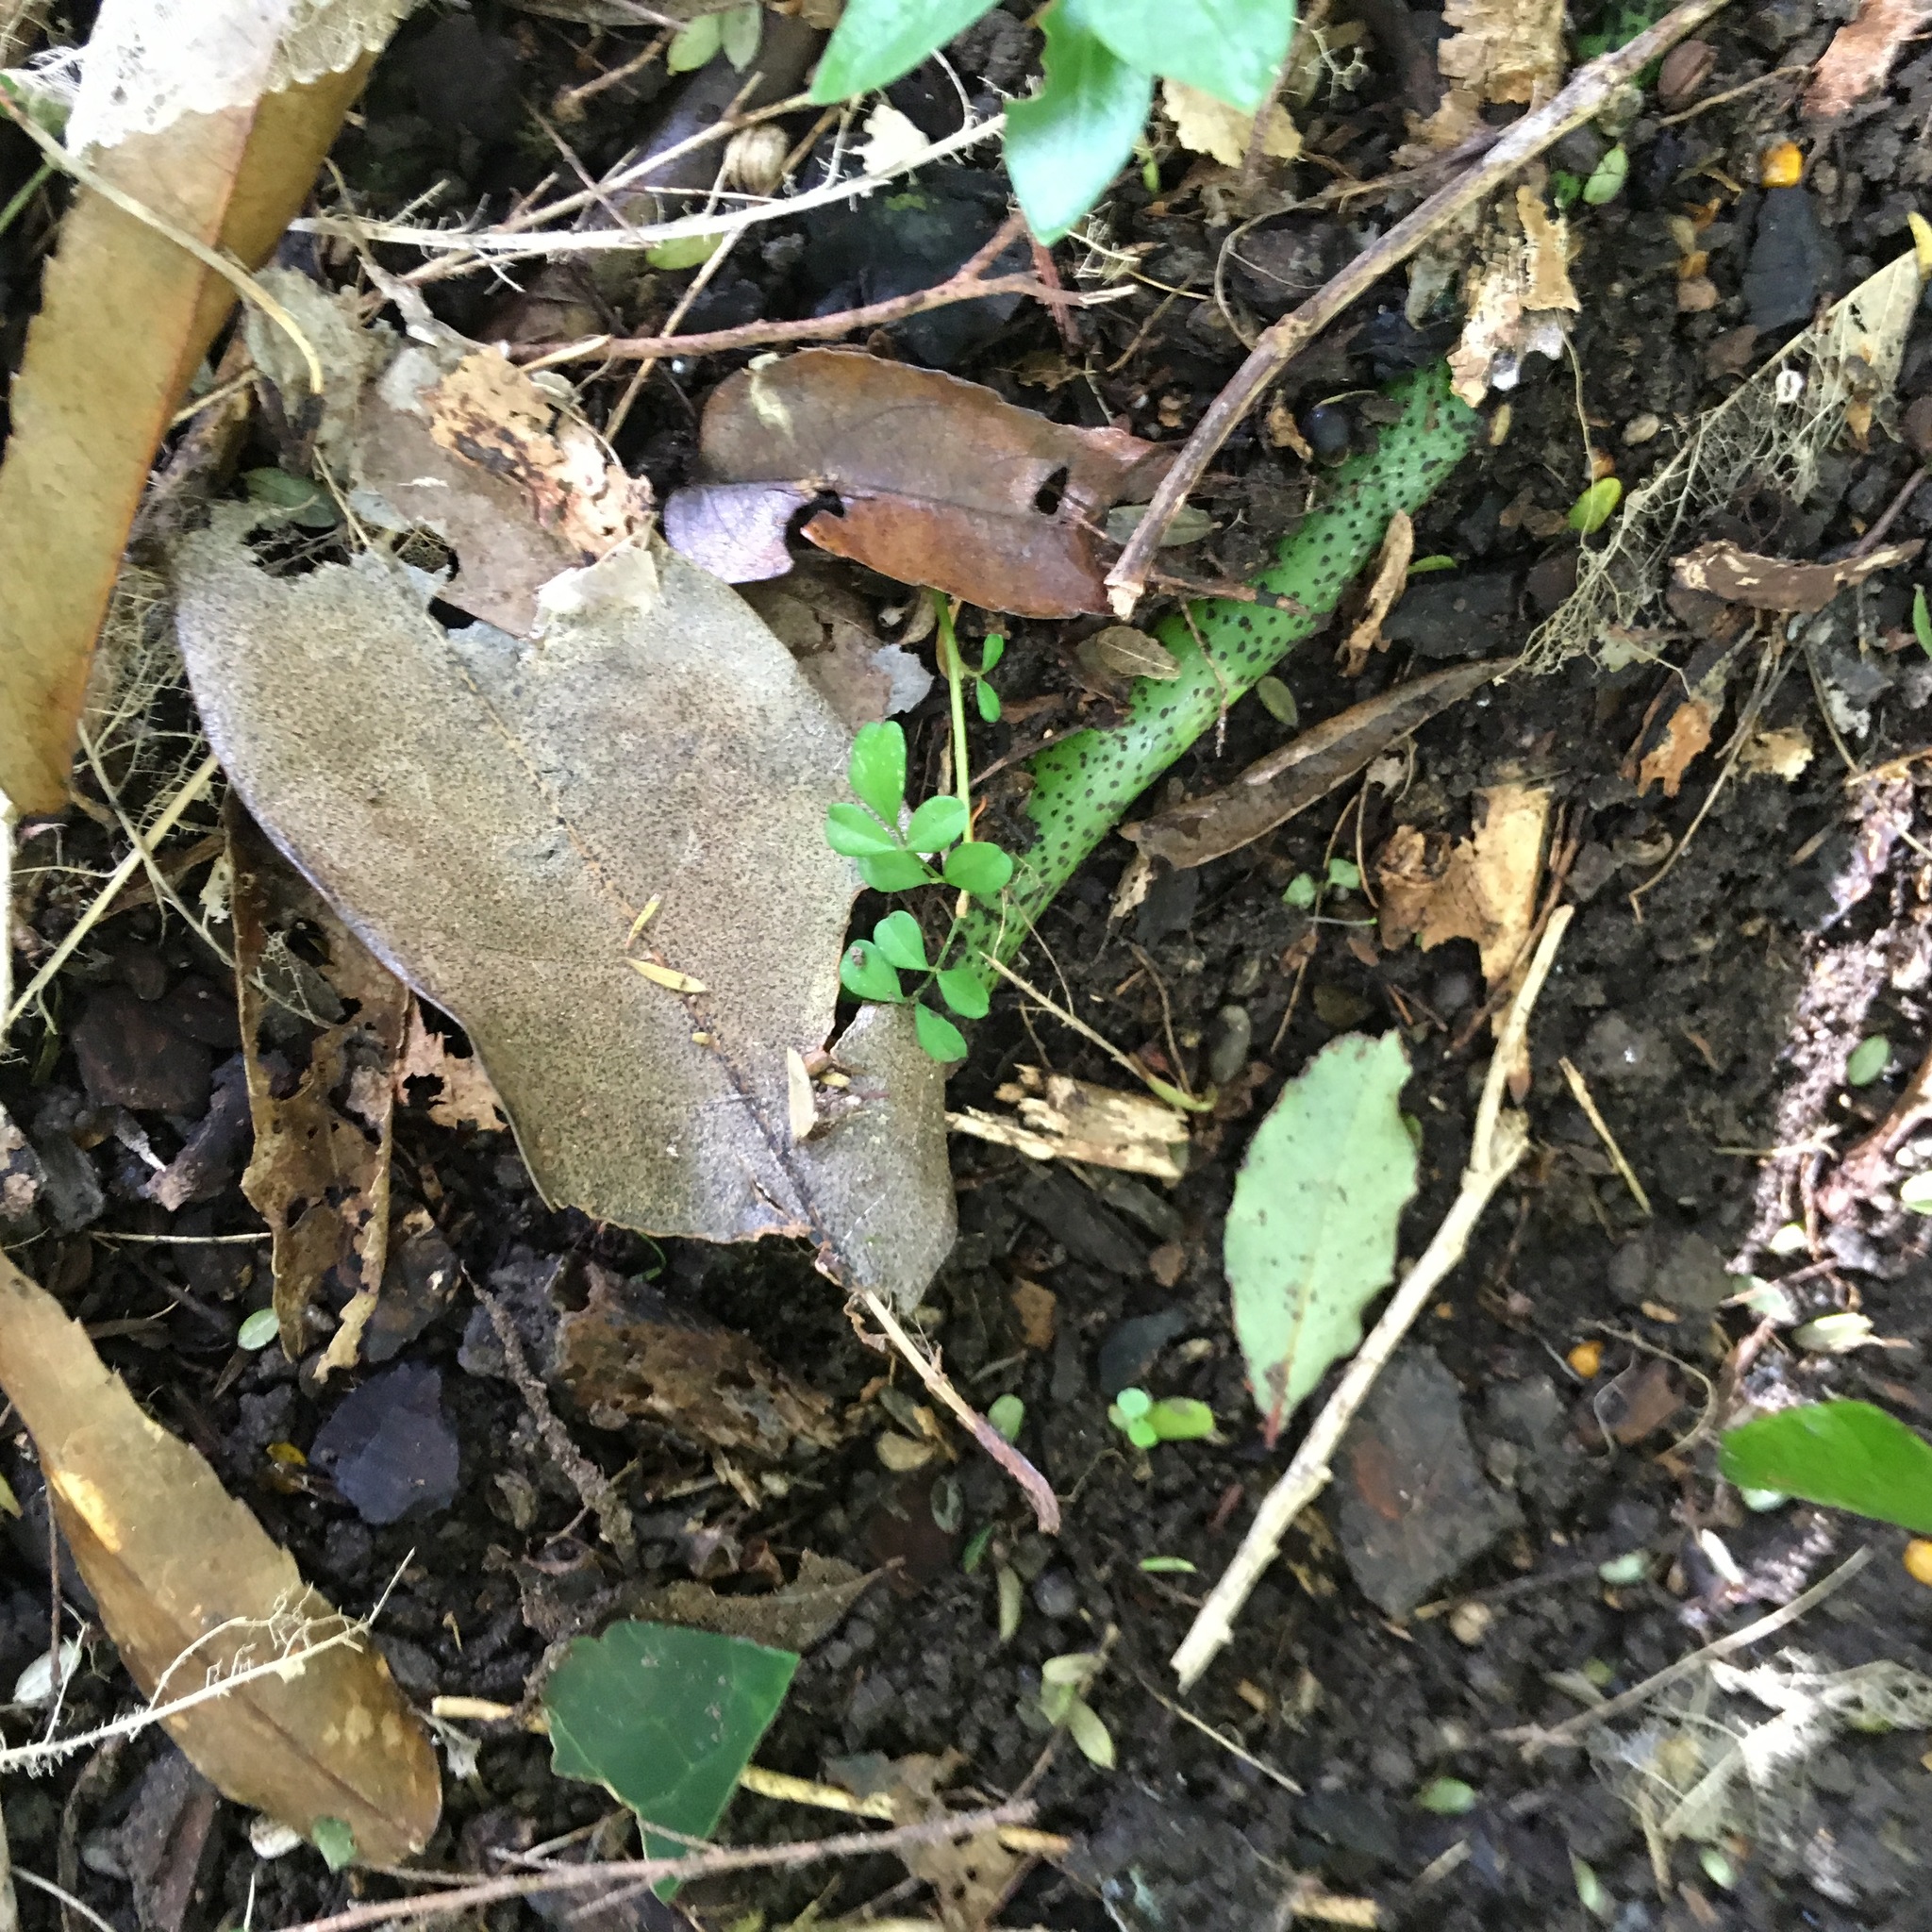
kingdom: Plantae
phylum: Tracheophyta
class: Polypodiopsida
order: Polypodiales
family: Polypodiaceae
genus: Lecanopteris
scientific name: Lecanopteris pustulata
